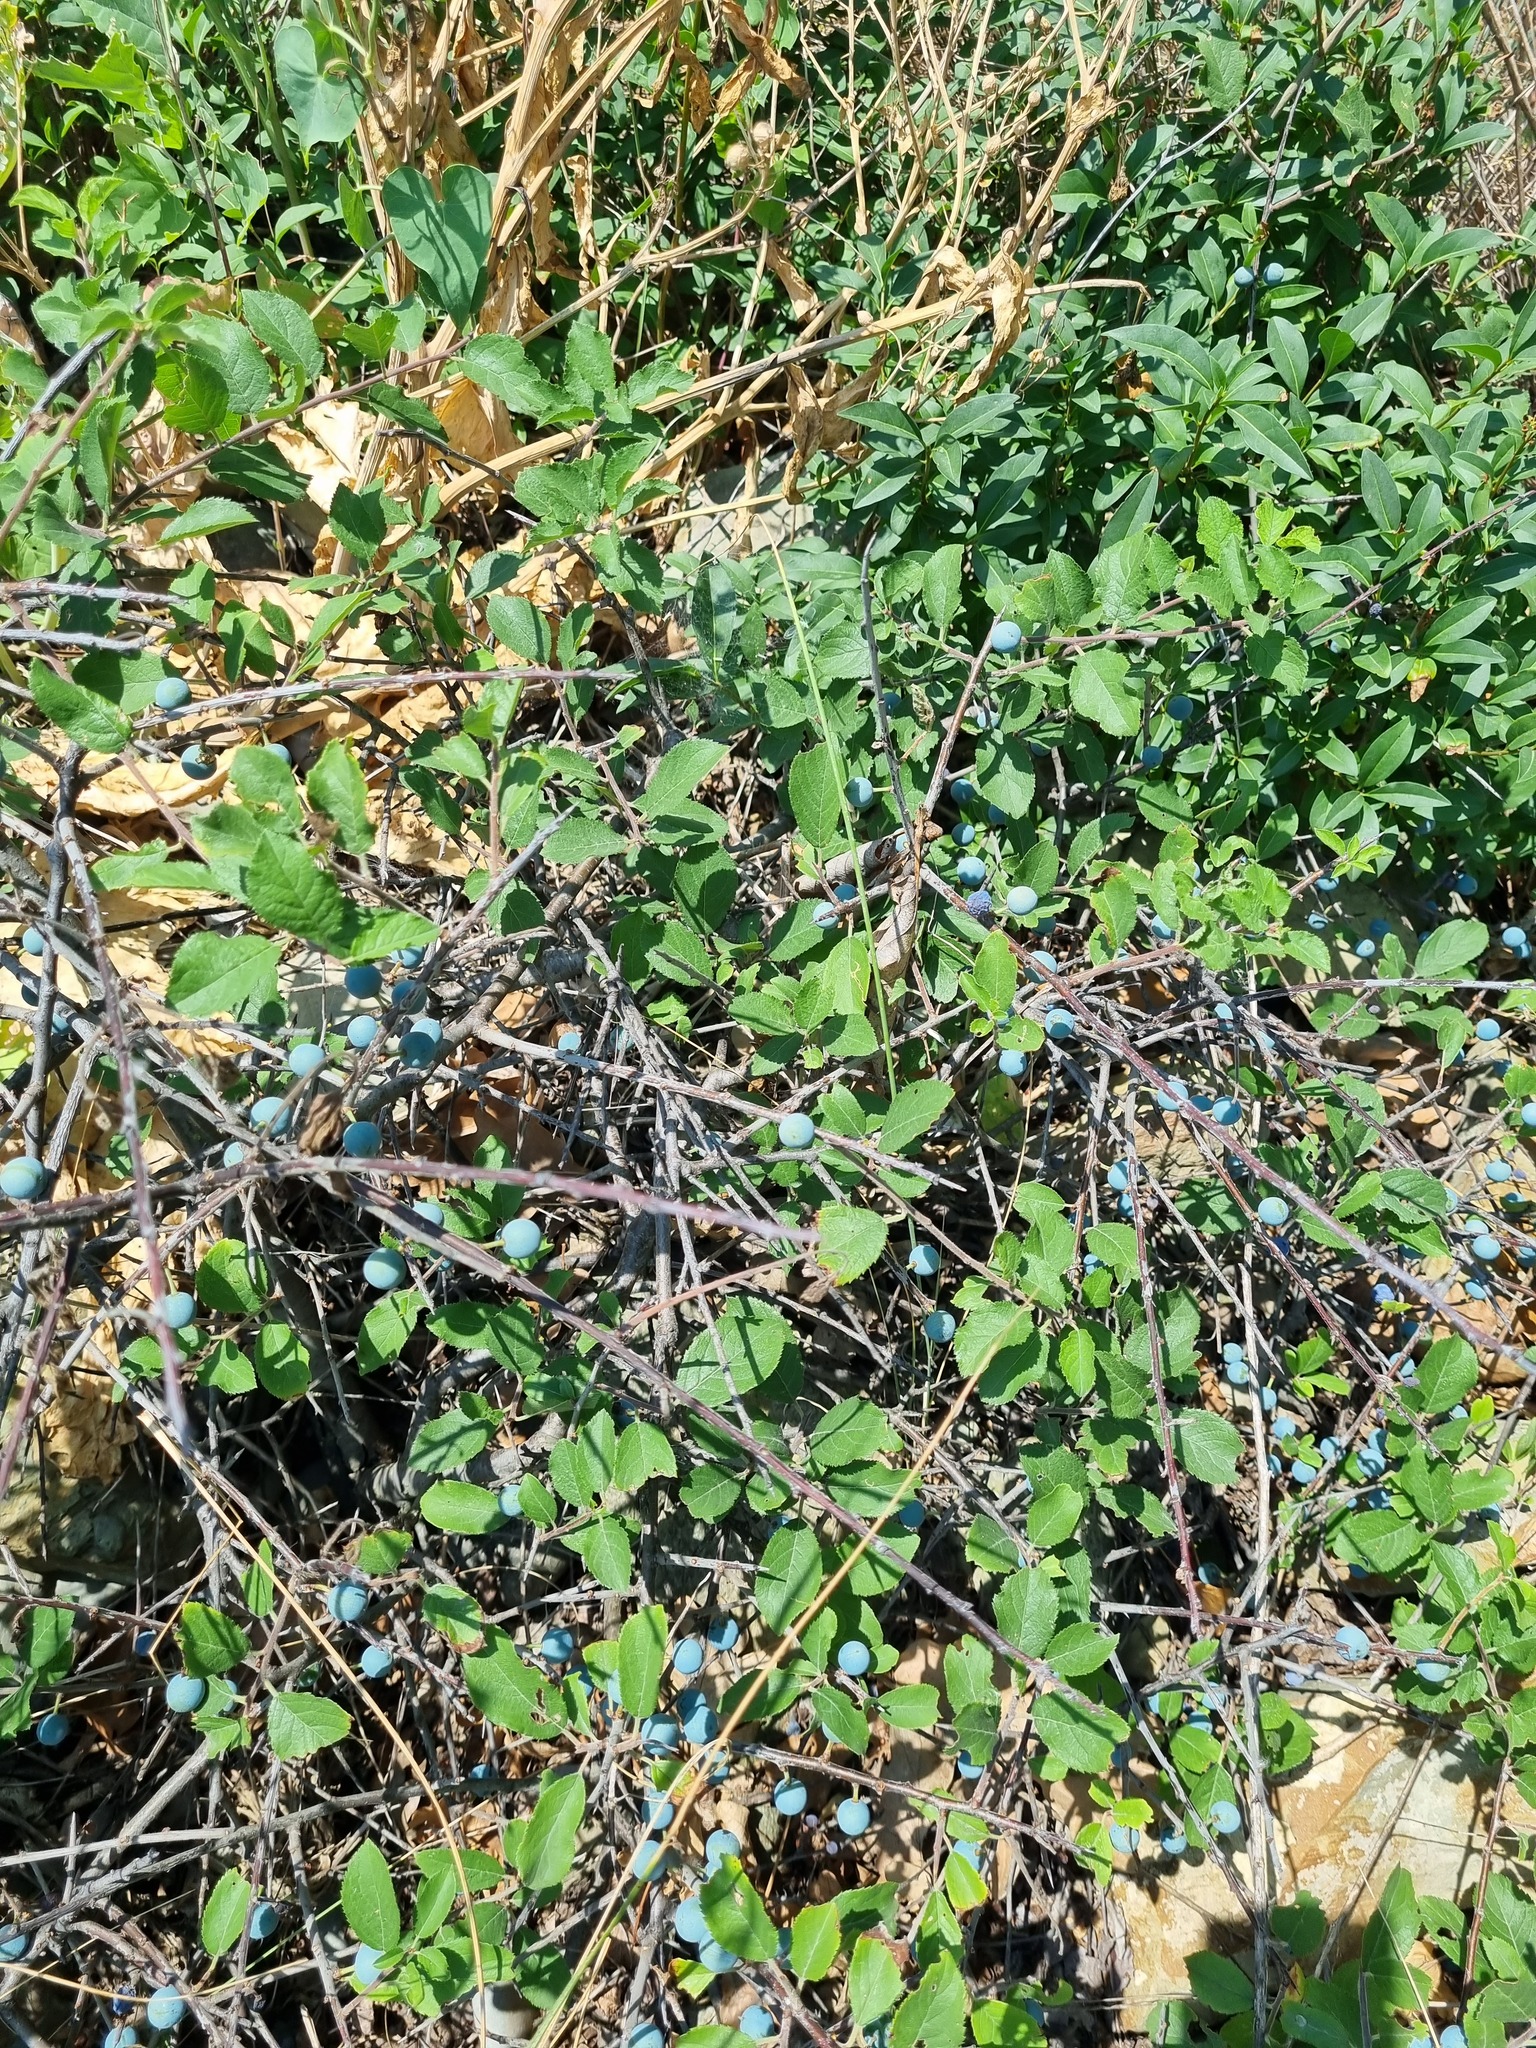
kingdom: Plantae
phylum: Tracheophyta
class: Magnoliopsida
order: Rosales
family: Rosaceae
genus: Prunus
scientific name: Prunus spinosa
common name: Blackthorn
